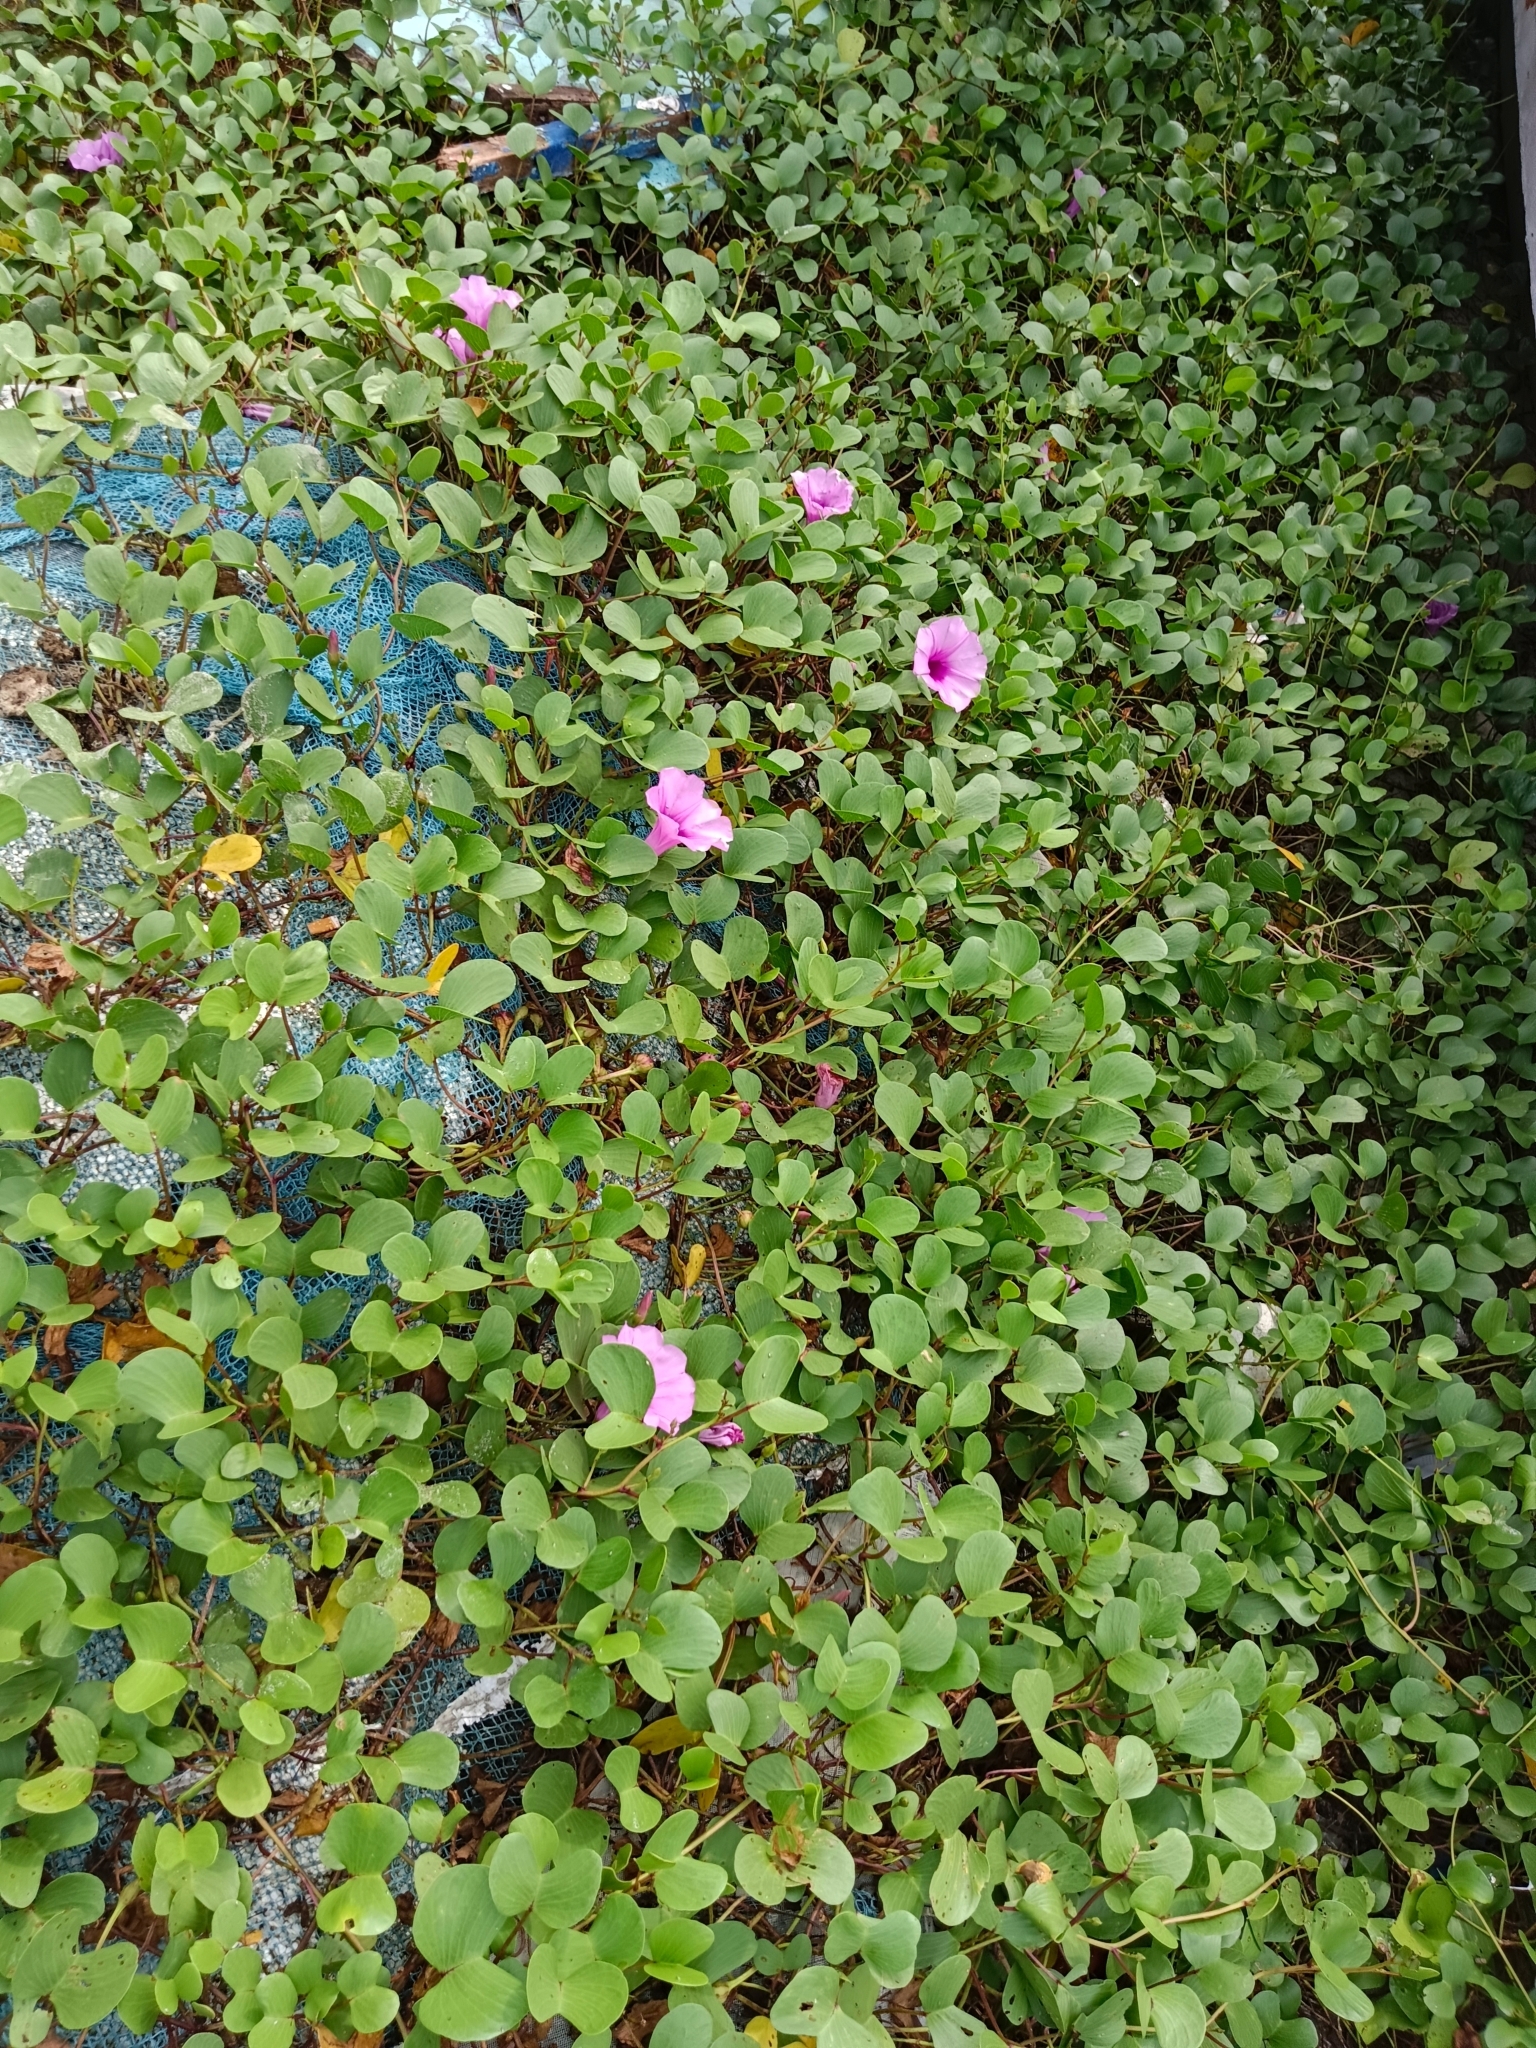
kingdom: Plantae
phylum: Tracheophyta
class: Magnoliopsida
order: Solanales
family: Convolvulaceae
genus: Ipomoea
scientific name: Ipomoea pes-caprae
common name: Beach morning glory
